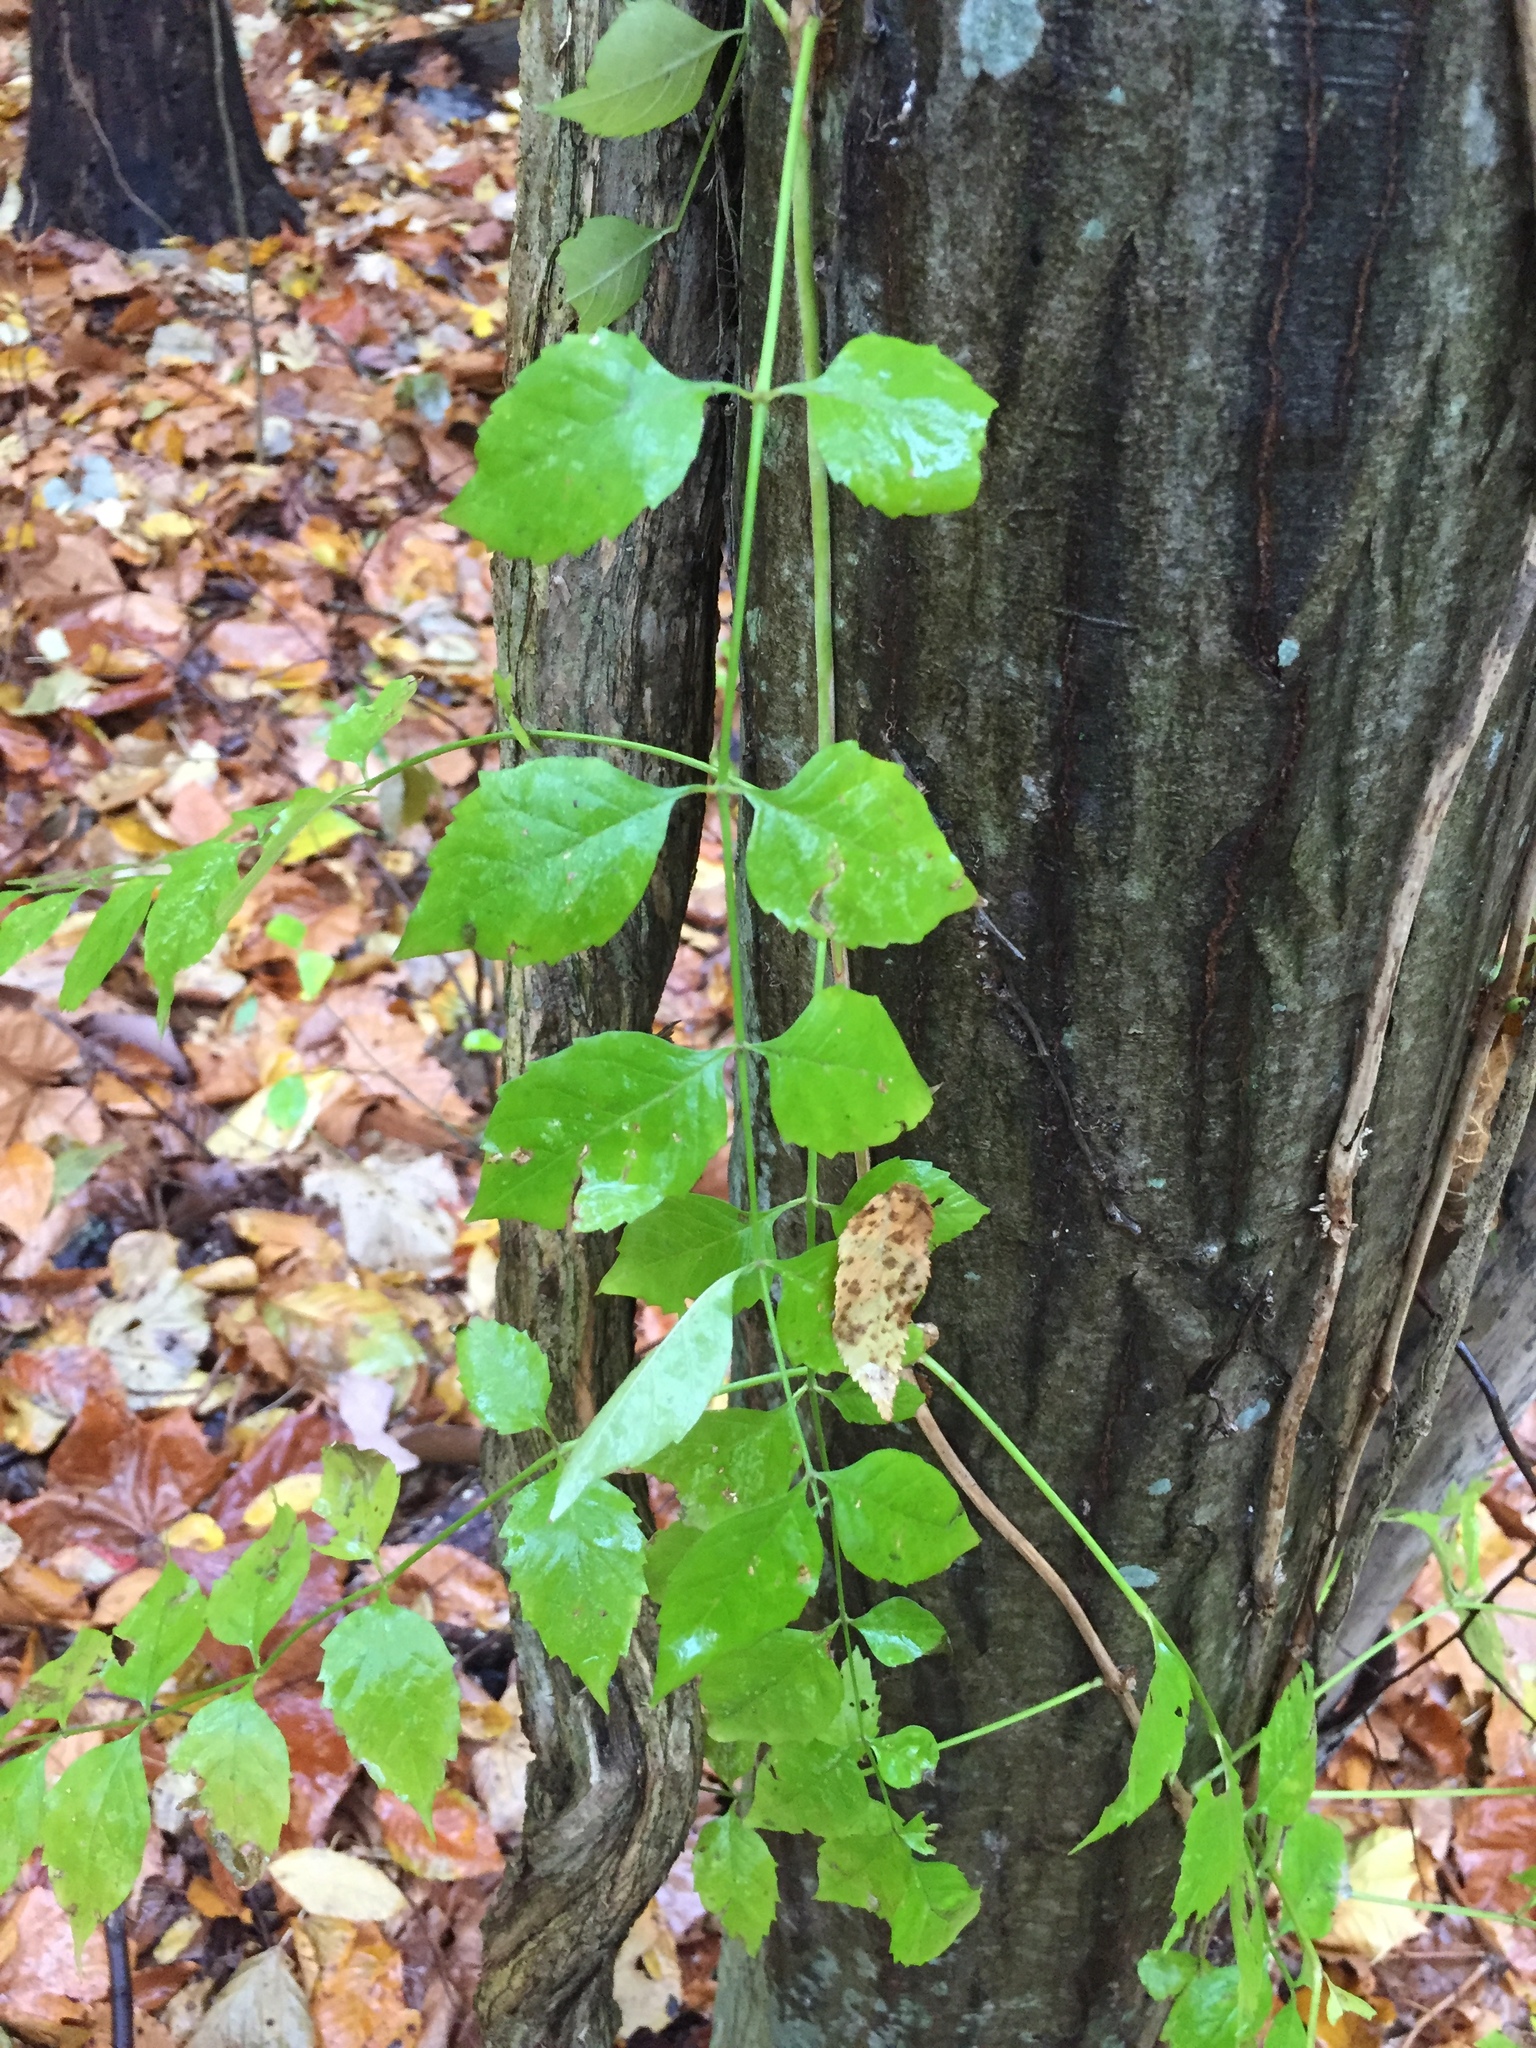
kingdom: Plantae
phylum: Tracheophyta
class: Magnoliopsida
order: Lamiales
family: Bignoniaceae
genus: Campsis
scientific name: Campsis radicans
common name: Trumpet-creeper
